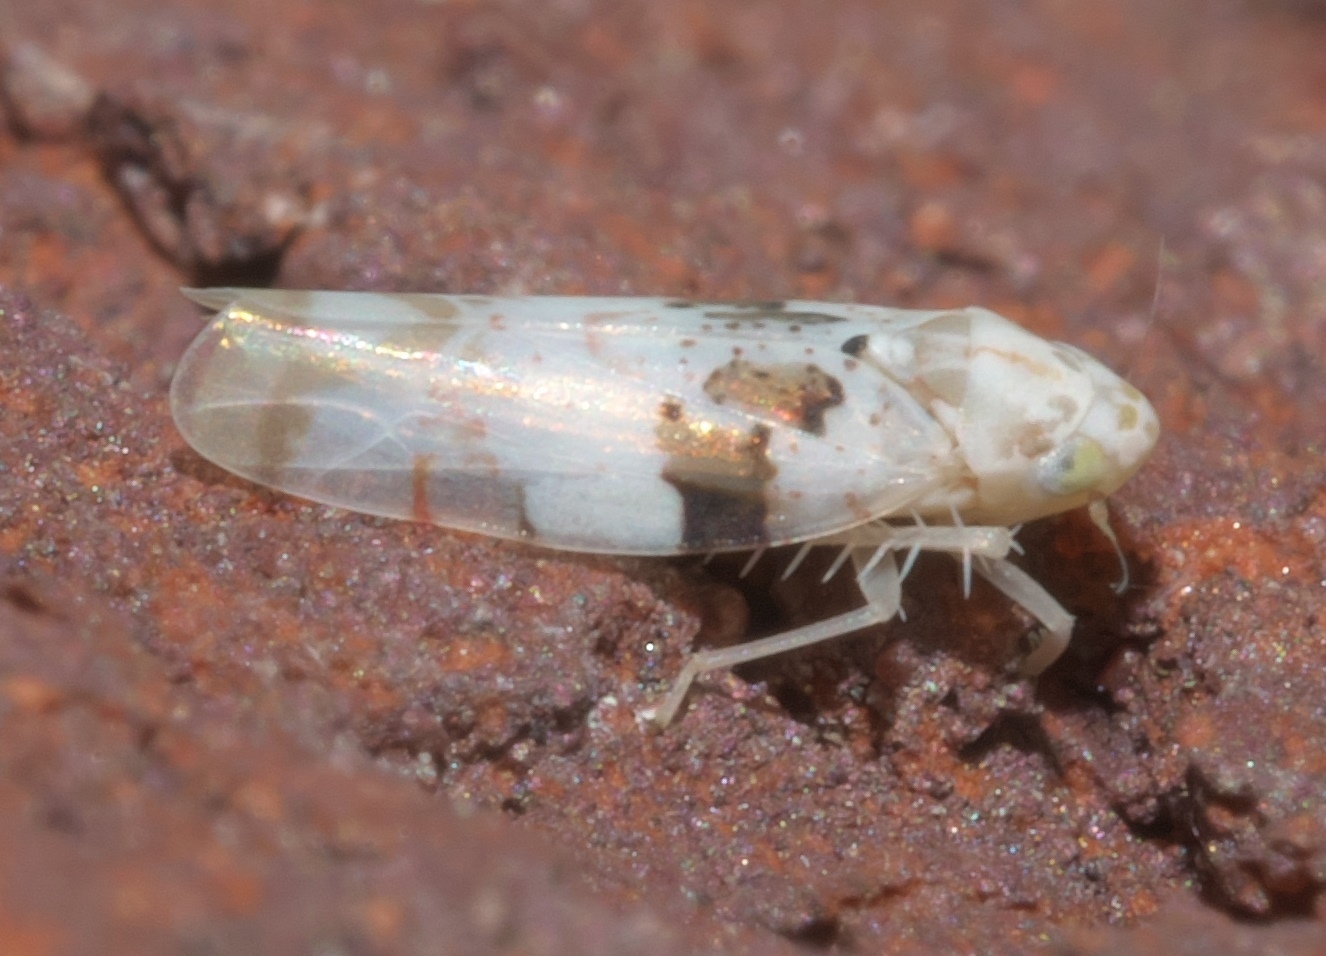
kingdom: Animalia
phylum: Arthropoda
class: Insecta
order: Hemiptera
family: Cicadellidae
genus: Hymetta
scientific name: Hymetta anthisma
